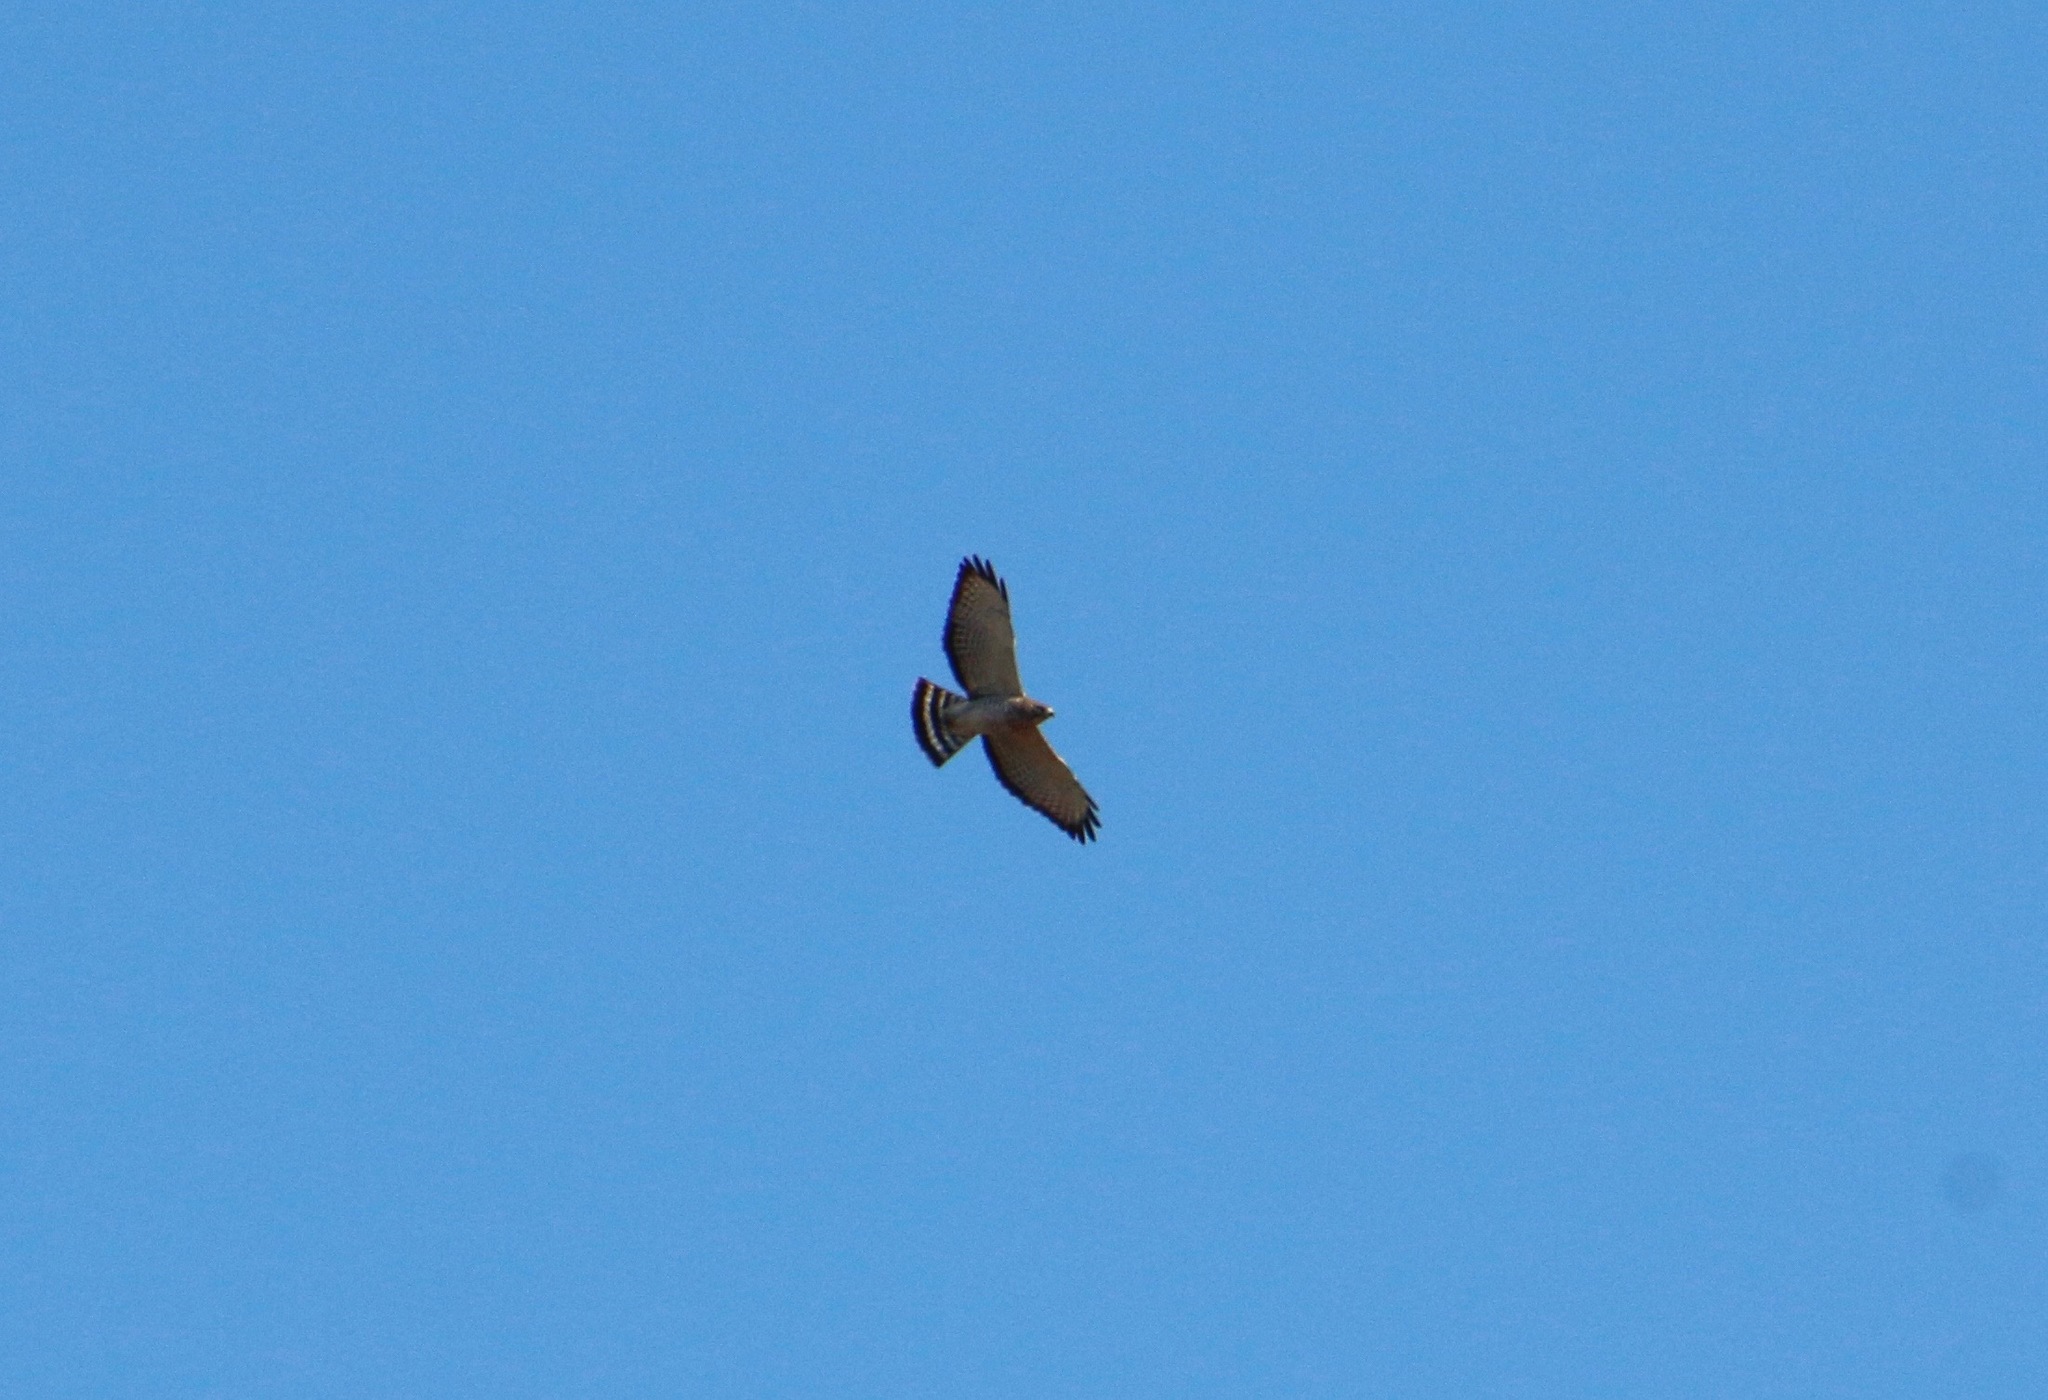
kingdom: Animalia
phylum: Chordata
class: Aves
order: Accipitriformes
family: Accipitridae
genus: Buteo
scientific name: Buteo platypterus
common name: Broad-winged hawk
